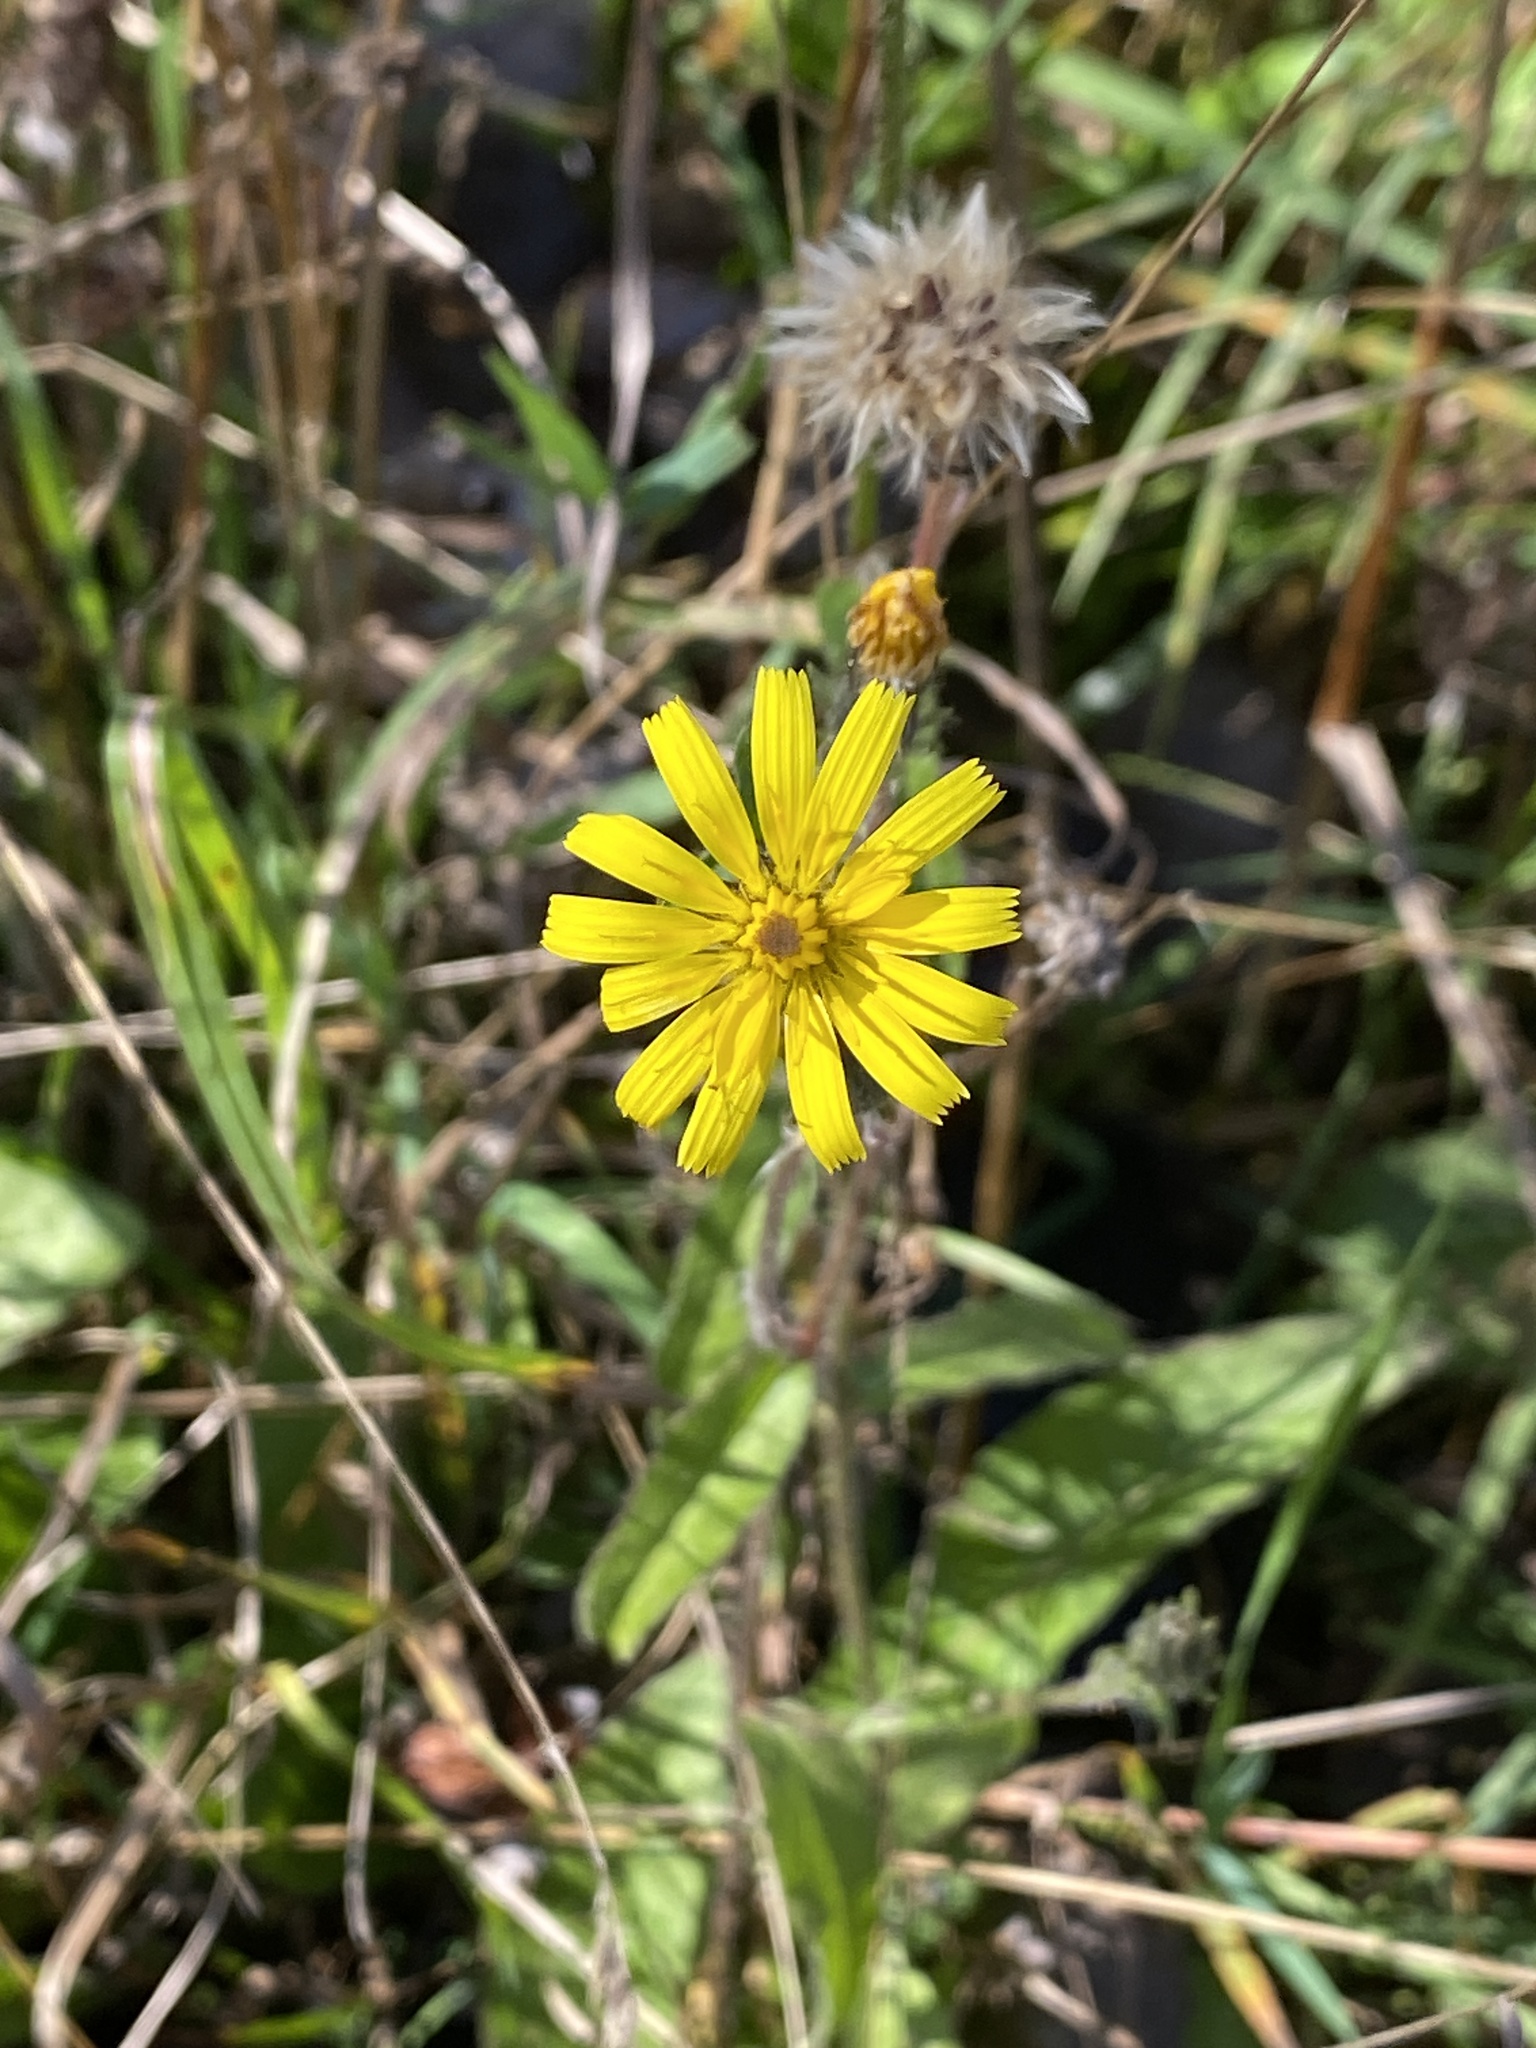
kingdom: Plantae
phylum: Tracheophyta
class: Magnoliopsida
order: Asterales
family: Asteraceae
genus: Picris
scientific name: Picris hieracioides
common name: Hawkweed oxtongue
